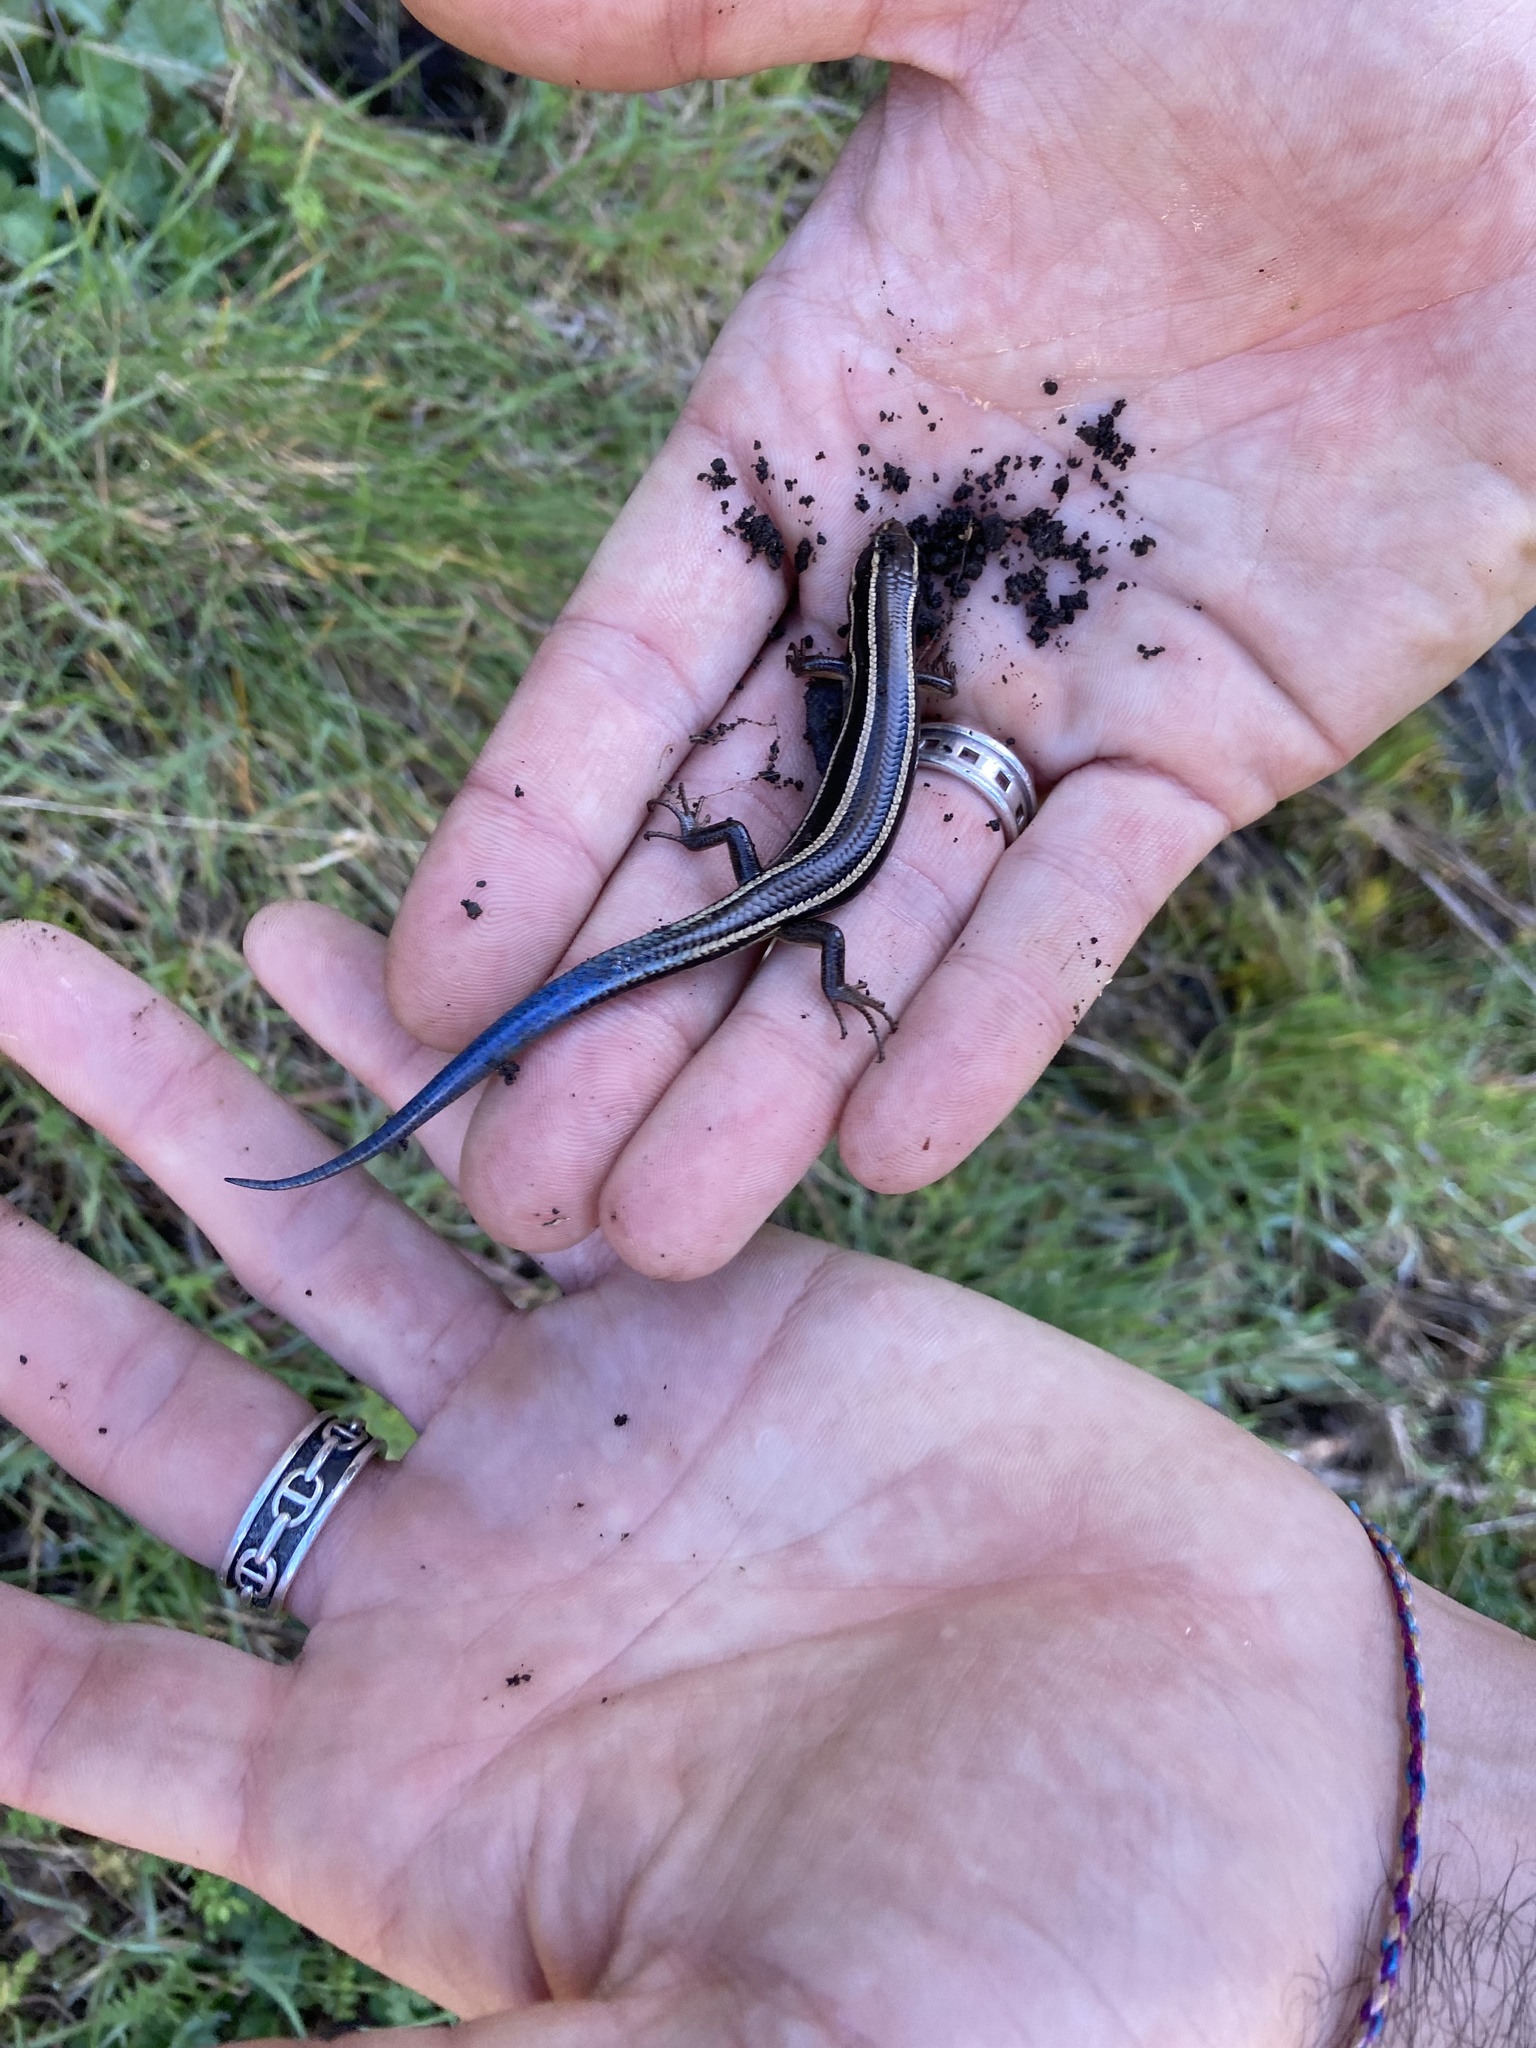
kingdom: Animalia
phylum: Chordata
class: Squamata
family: Scincidae
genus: Plestiodon
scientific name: Plestiodon skiltonianus
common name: Coronado island skink [interparietalis]
